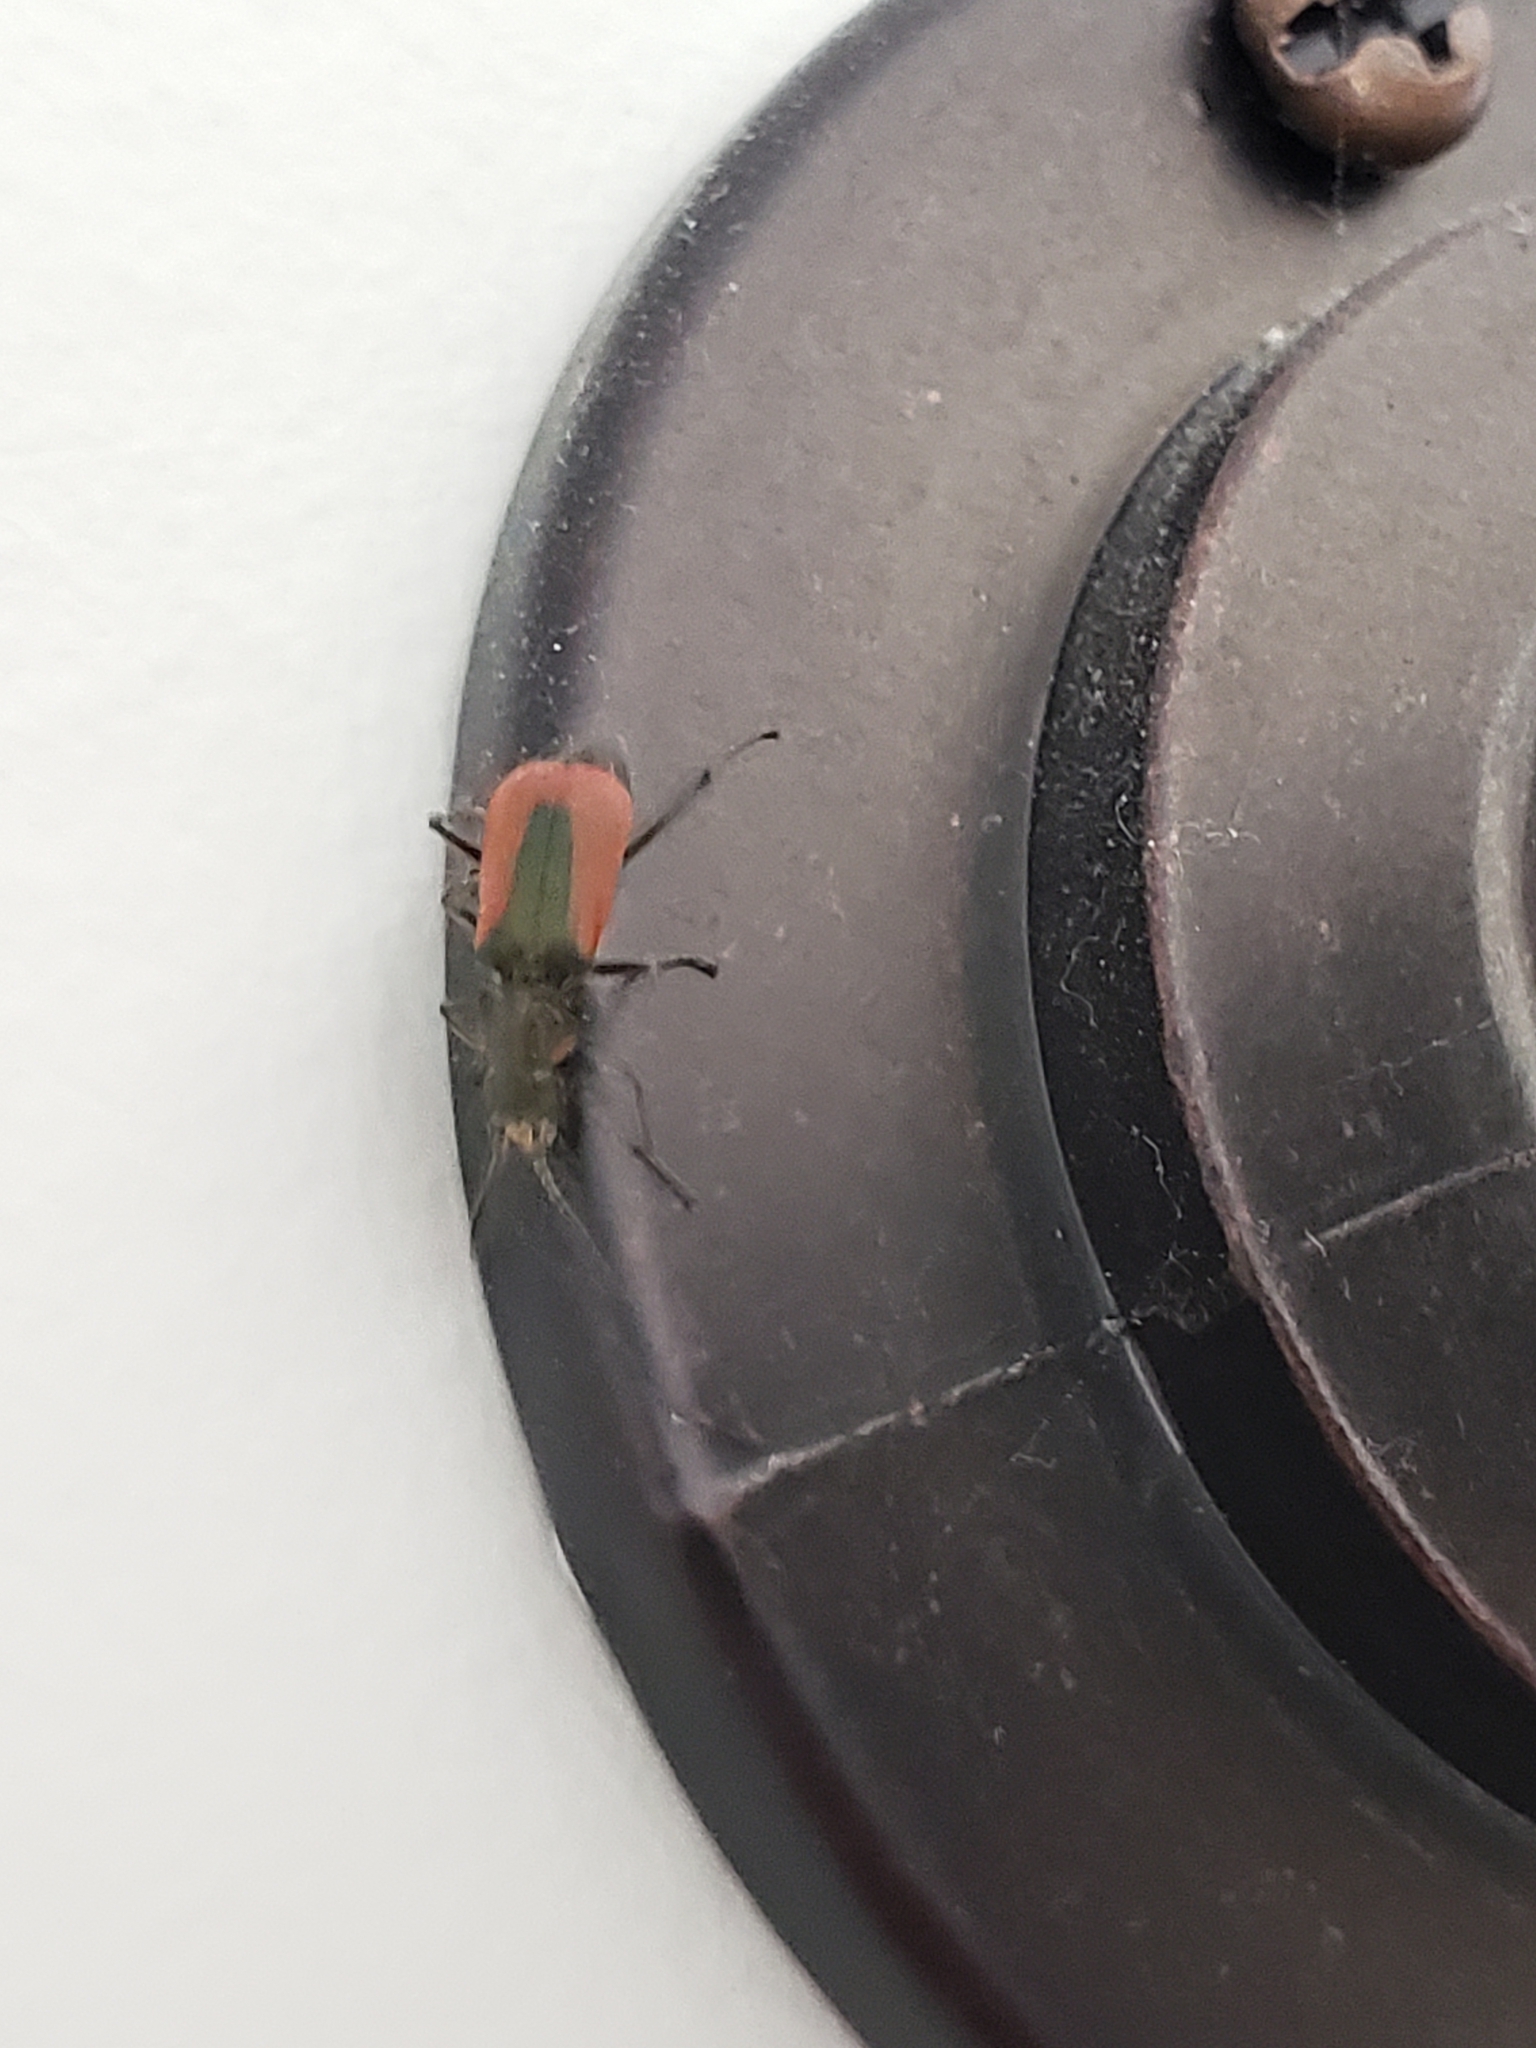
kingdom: Animalia
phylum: Arthropoda
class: Insecta
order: Coleoptera
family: Melyridae
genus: Malachius
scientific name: Malachius aeneus
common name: Scarlet malachite beetle
